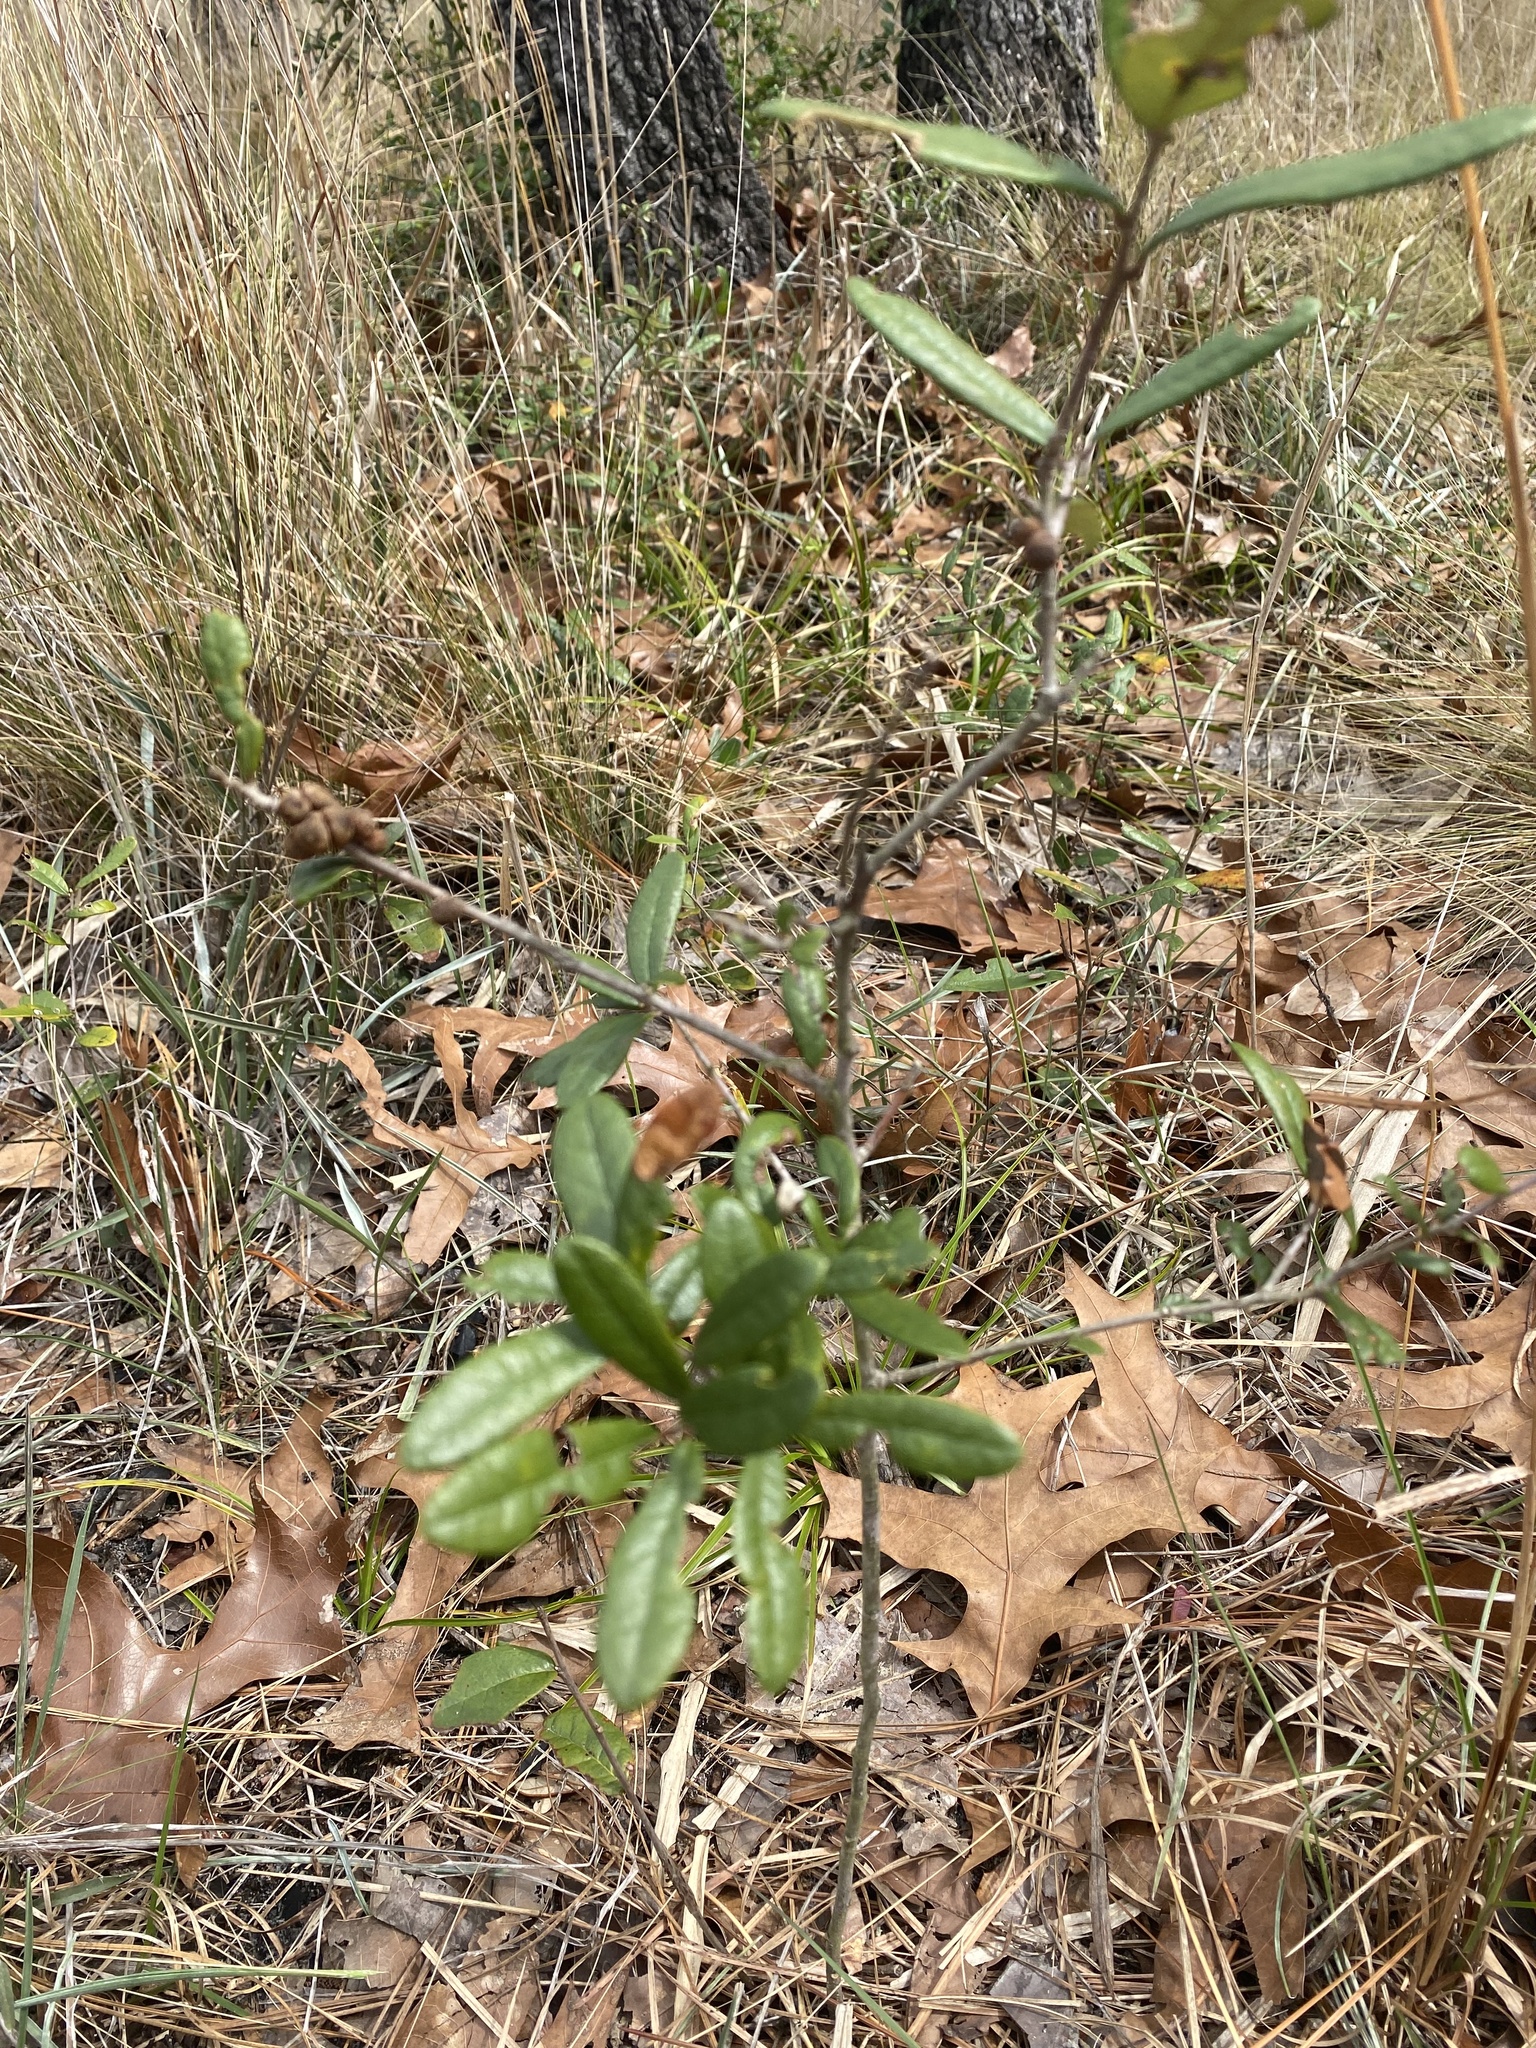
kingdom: Animalia
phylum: Arthropoda
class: Insecta
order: Hymenoptera
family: Cynipidae
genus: Disholcaspis
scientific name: Disholcaspis
